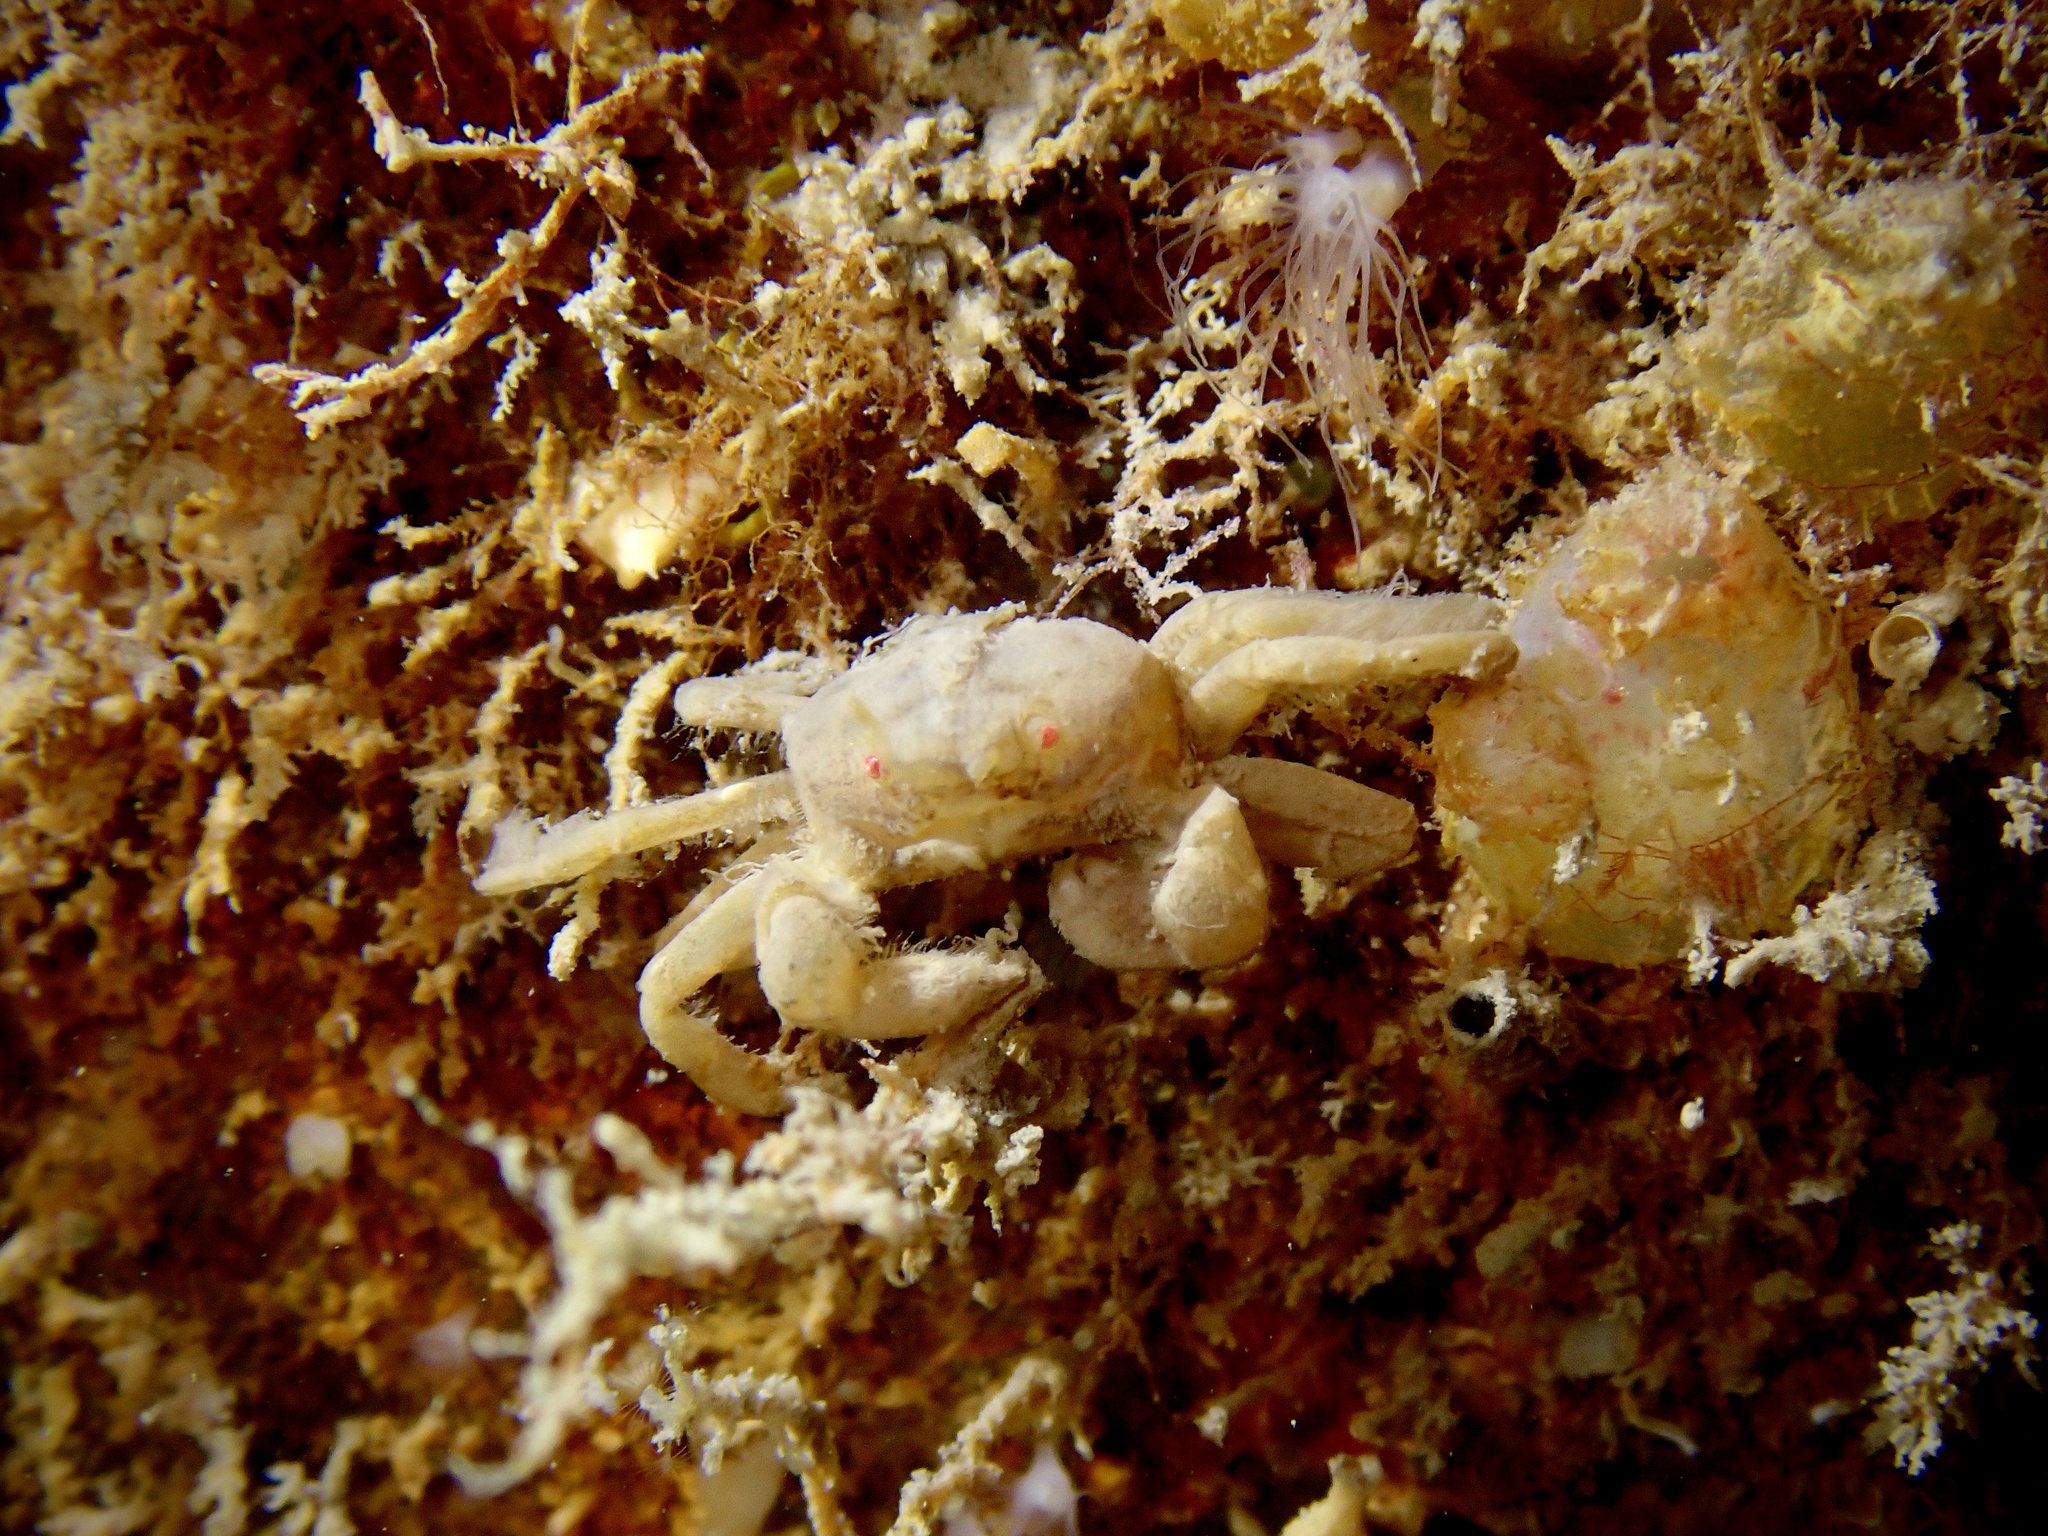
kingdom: Animalia
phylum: Arthropoda
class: Malacostraca
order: Decapoda
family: Pinnotheridae
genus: Nepinnotheres
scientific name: Nepinnotheres pinnotheres
